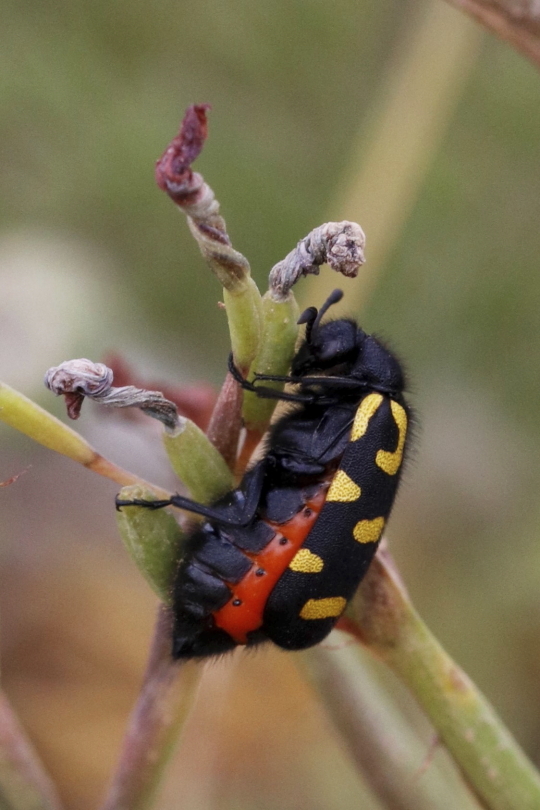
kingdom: Animalia
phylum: Arthropoda
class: Insecta
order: Coleoptera
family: Meloidae
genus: Ceroctis
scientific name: Ceroctis capensis
